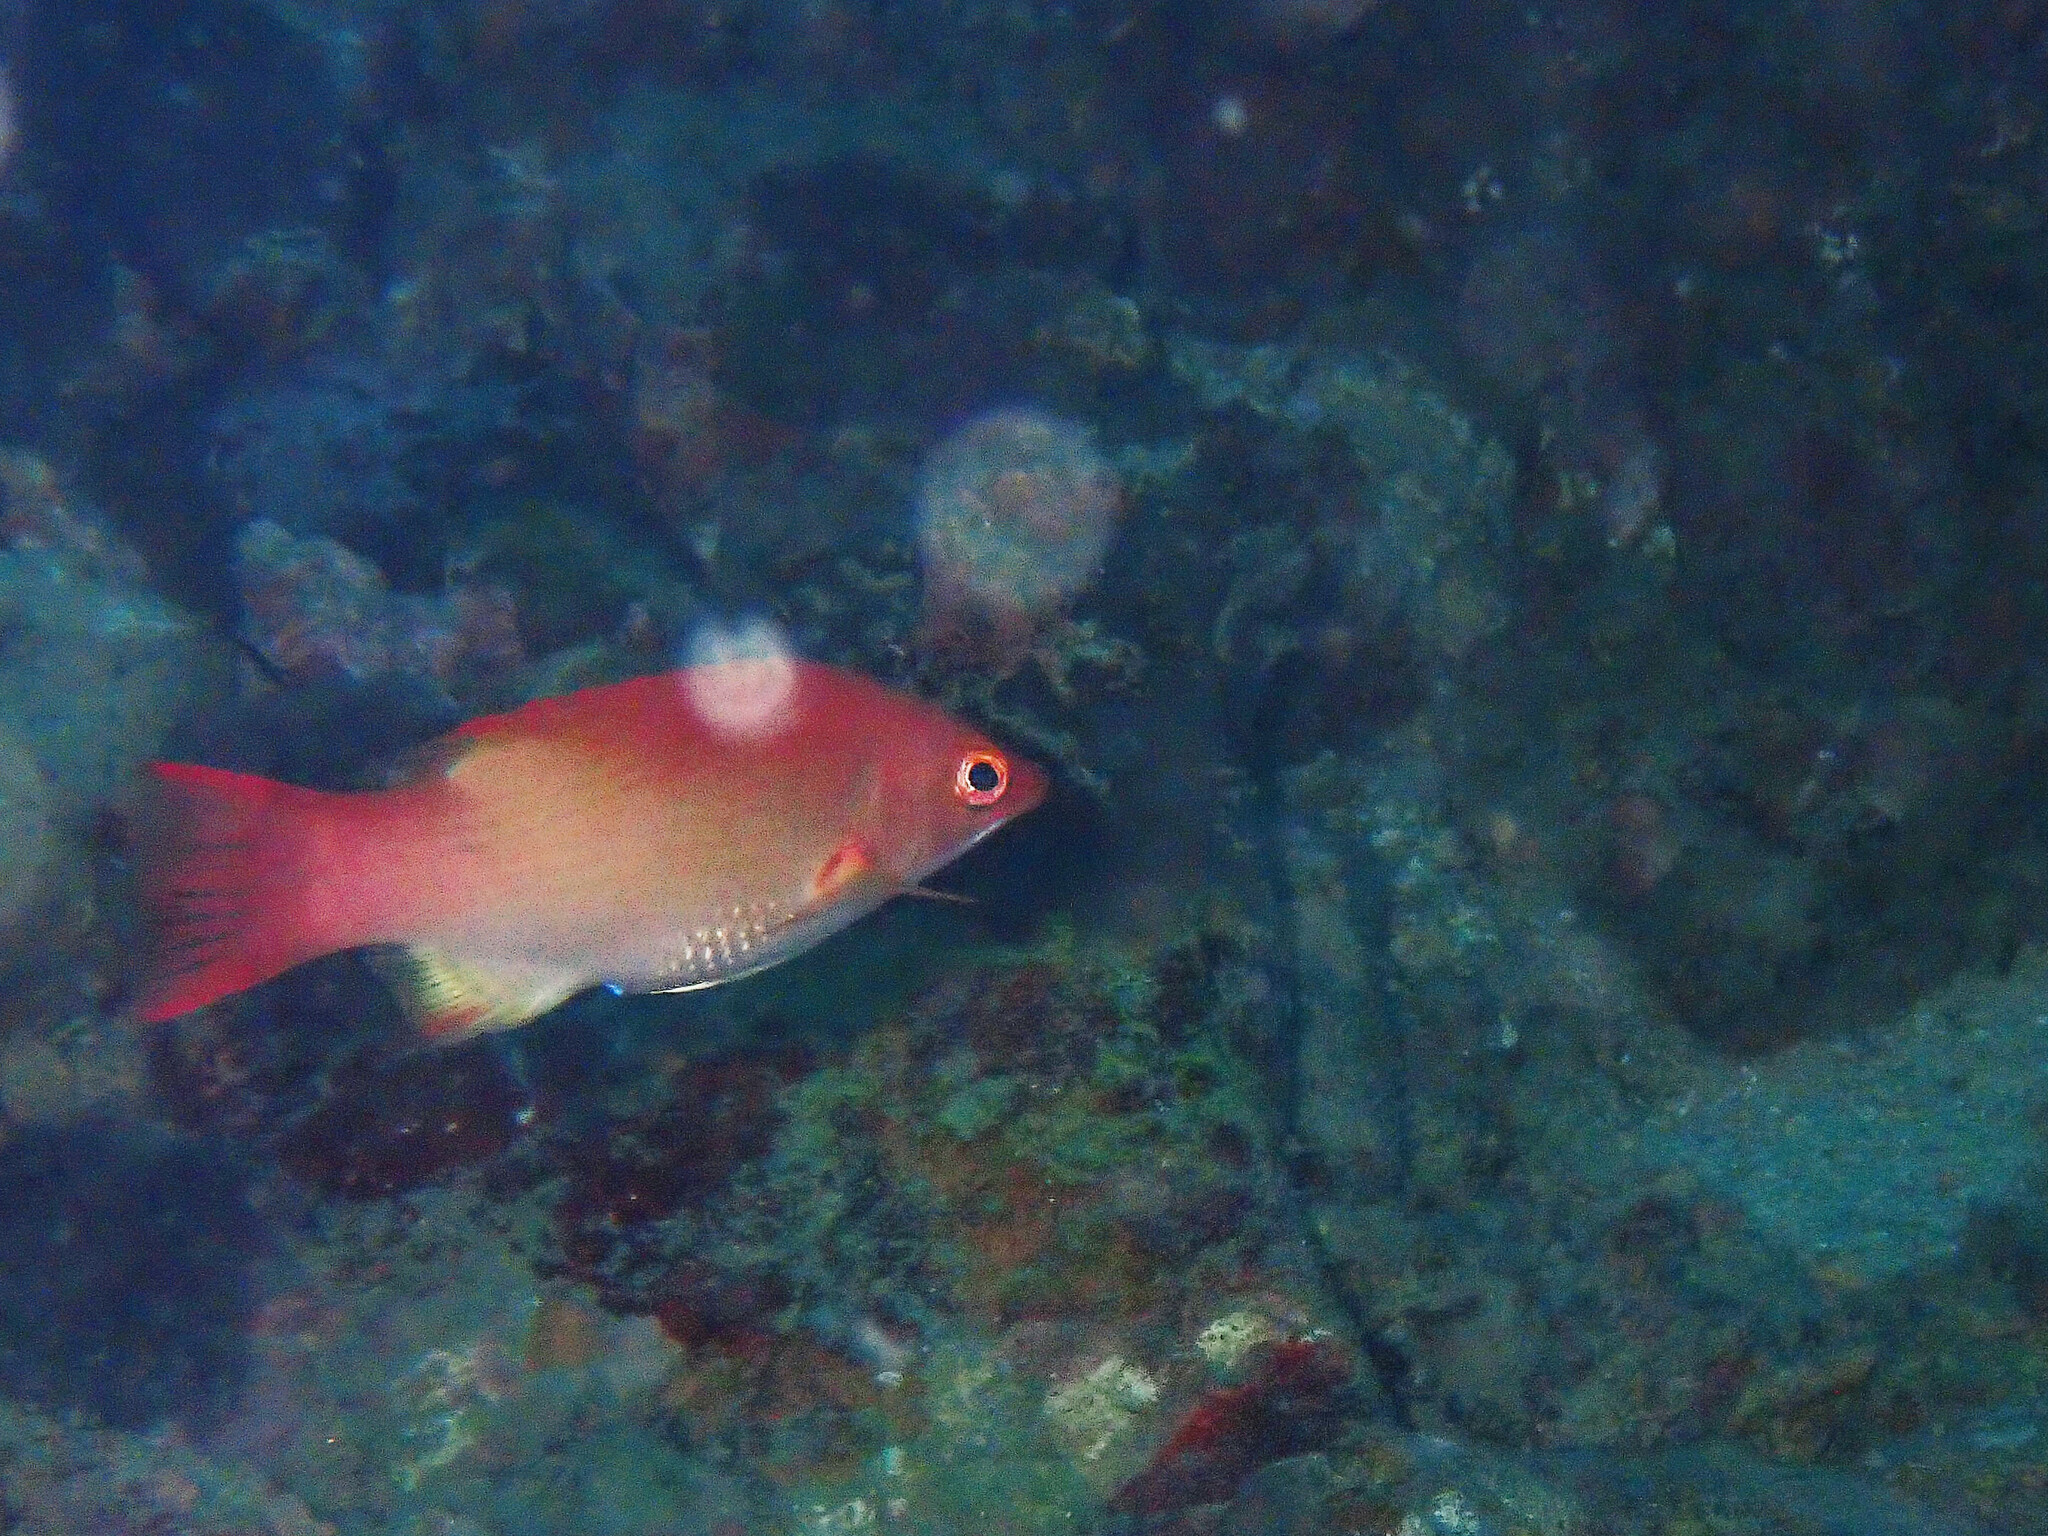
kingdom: Animalia
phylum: Chordata
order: Perciformes
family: Labridae
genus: Bodianus
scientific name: Bodianus neilli
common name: Bay of bengal hogfish
